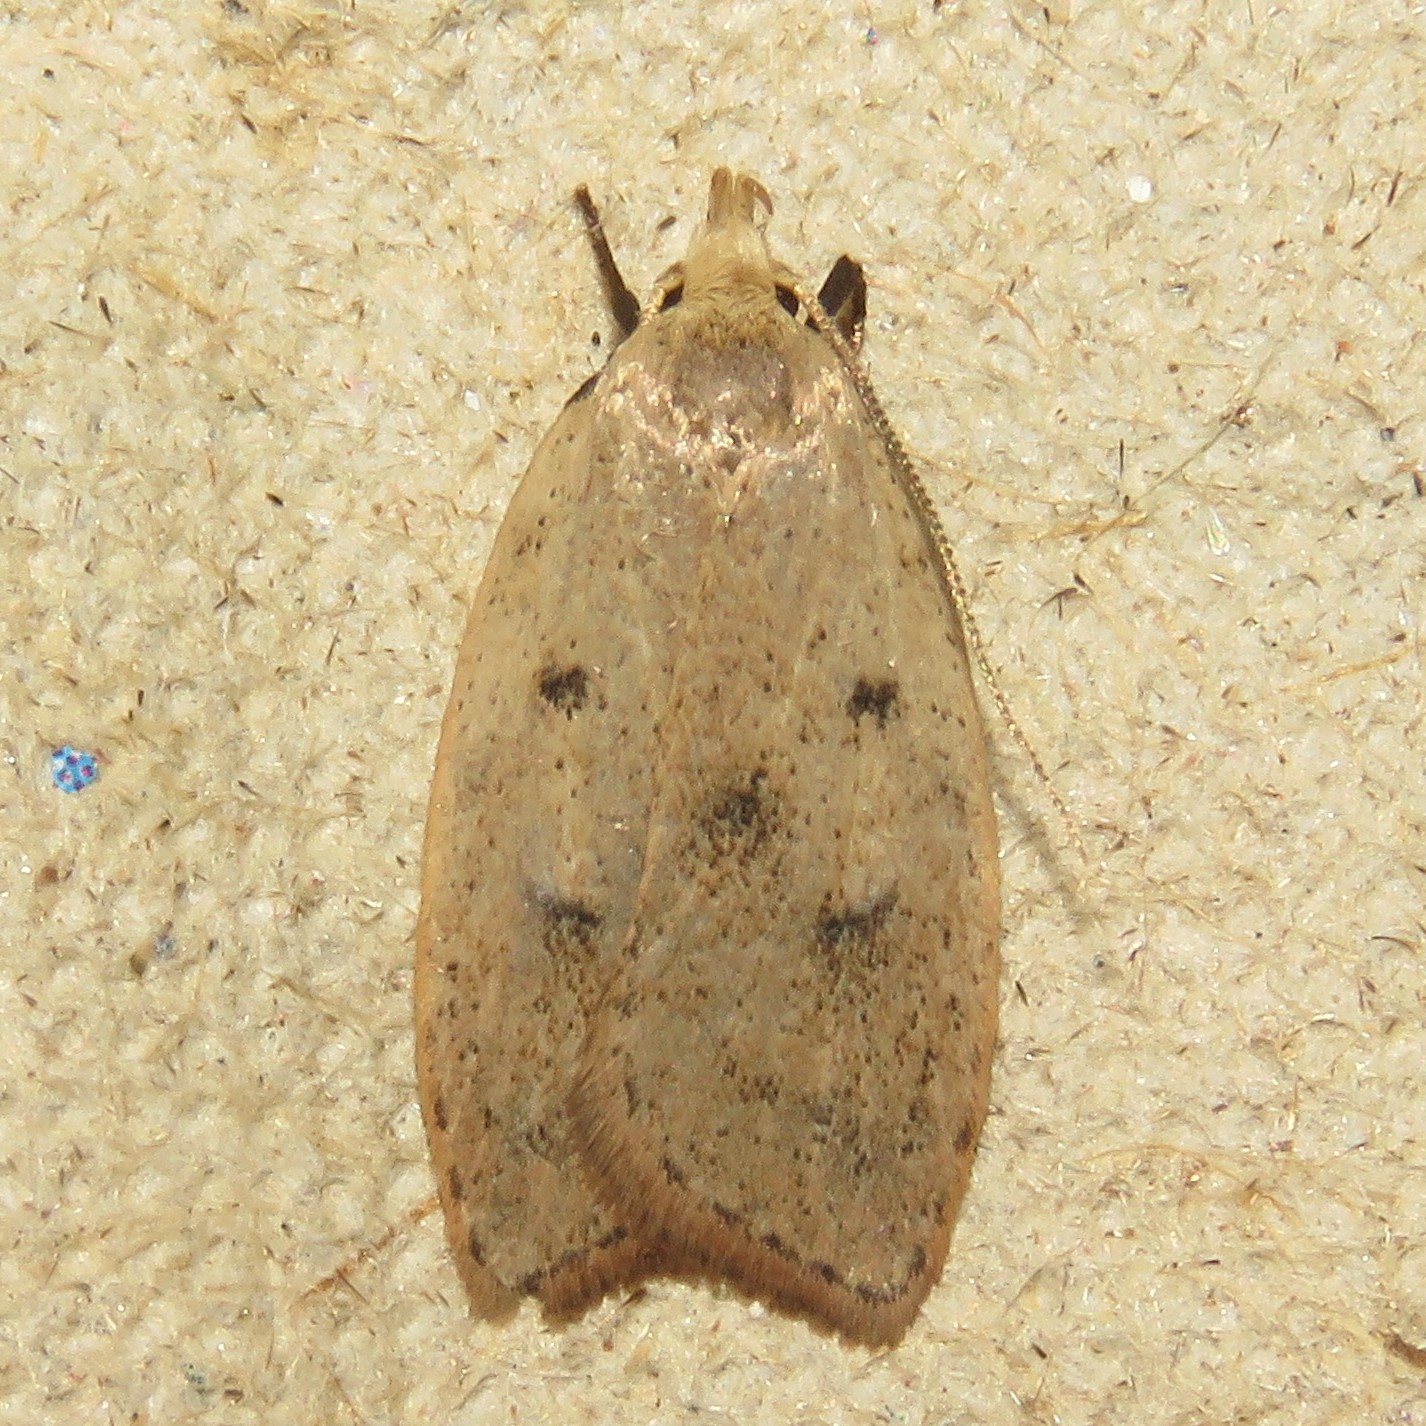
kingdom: Animalia
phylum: Arthropoda
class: Insecta
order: Lepidoptera
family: Peleopodidae
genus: Machimia
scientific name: Machimia tentoriferella
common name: Gold-striped leaftier moth
